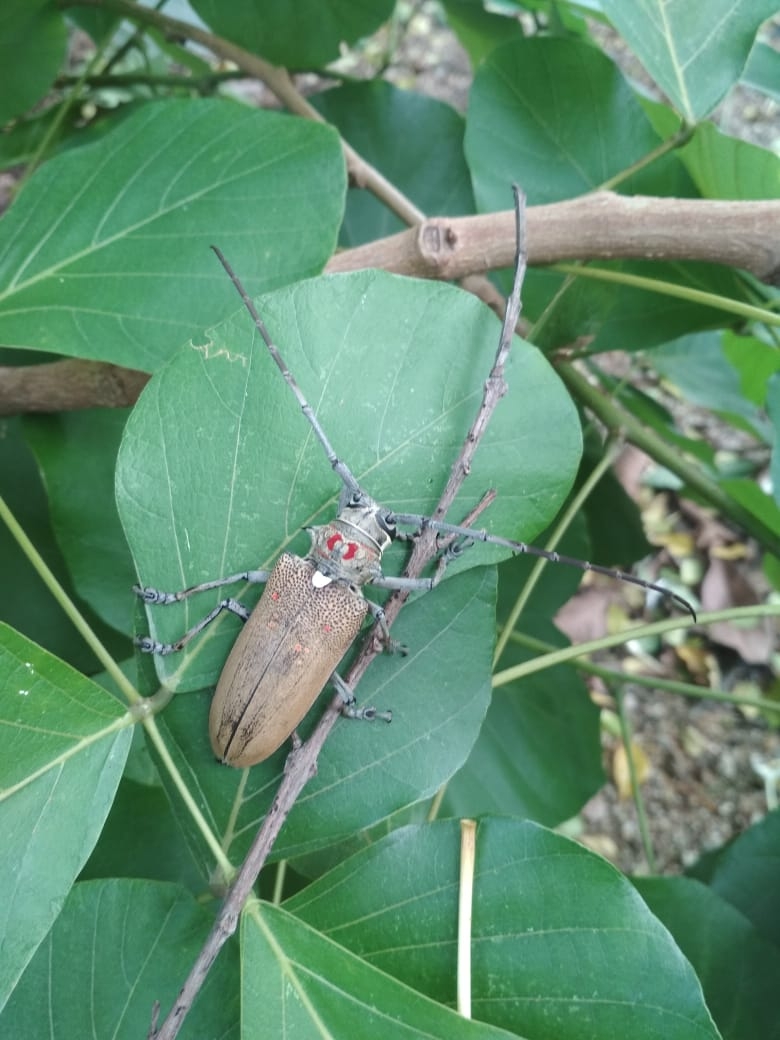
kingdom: Animalia
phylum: Arthropoda
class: Insecta
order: Coleoptera
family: Cerambycidae
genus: Batocera
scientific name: Batocera rufomaculata
